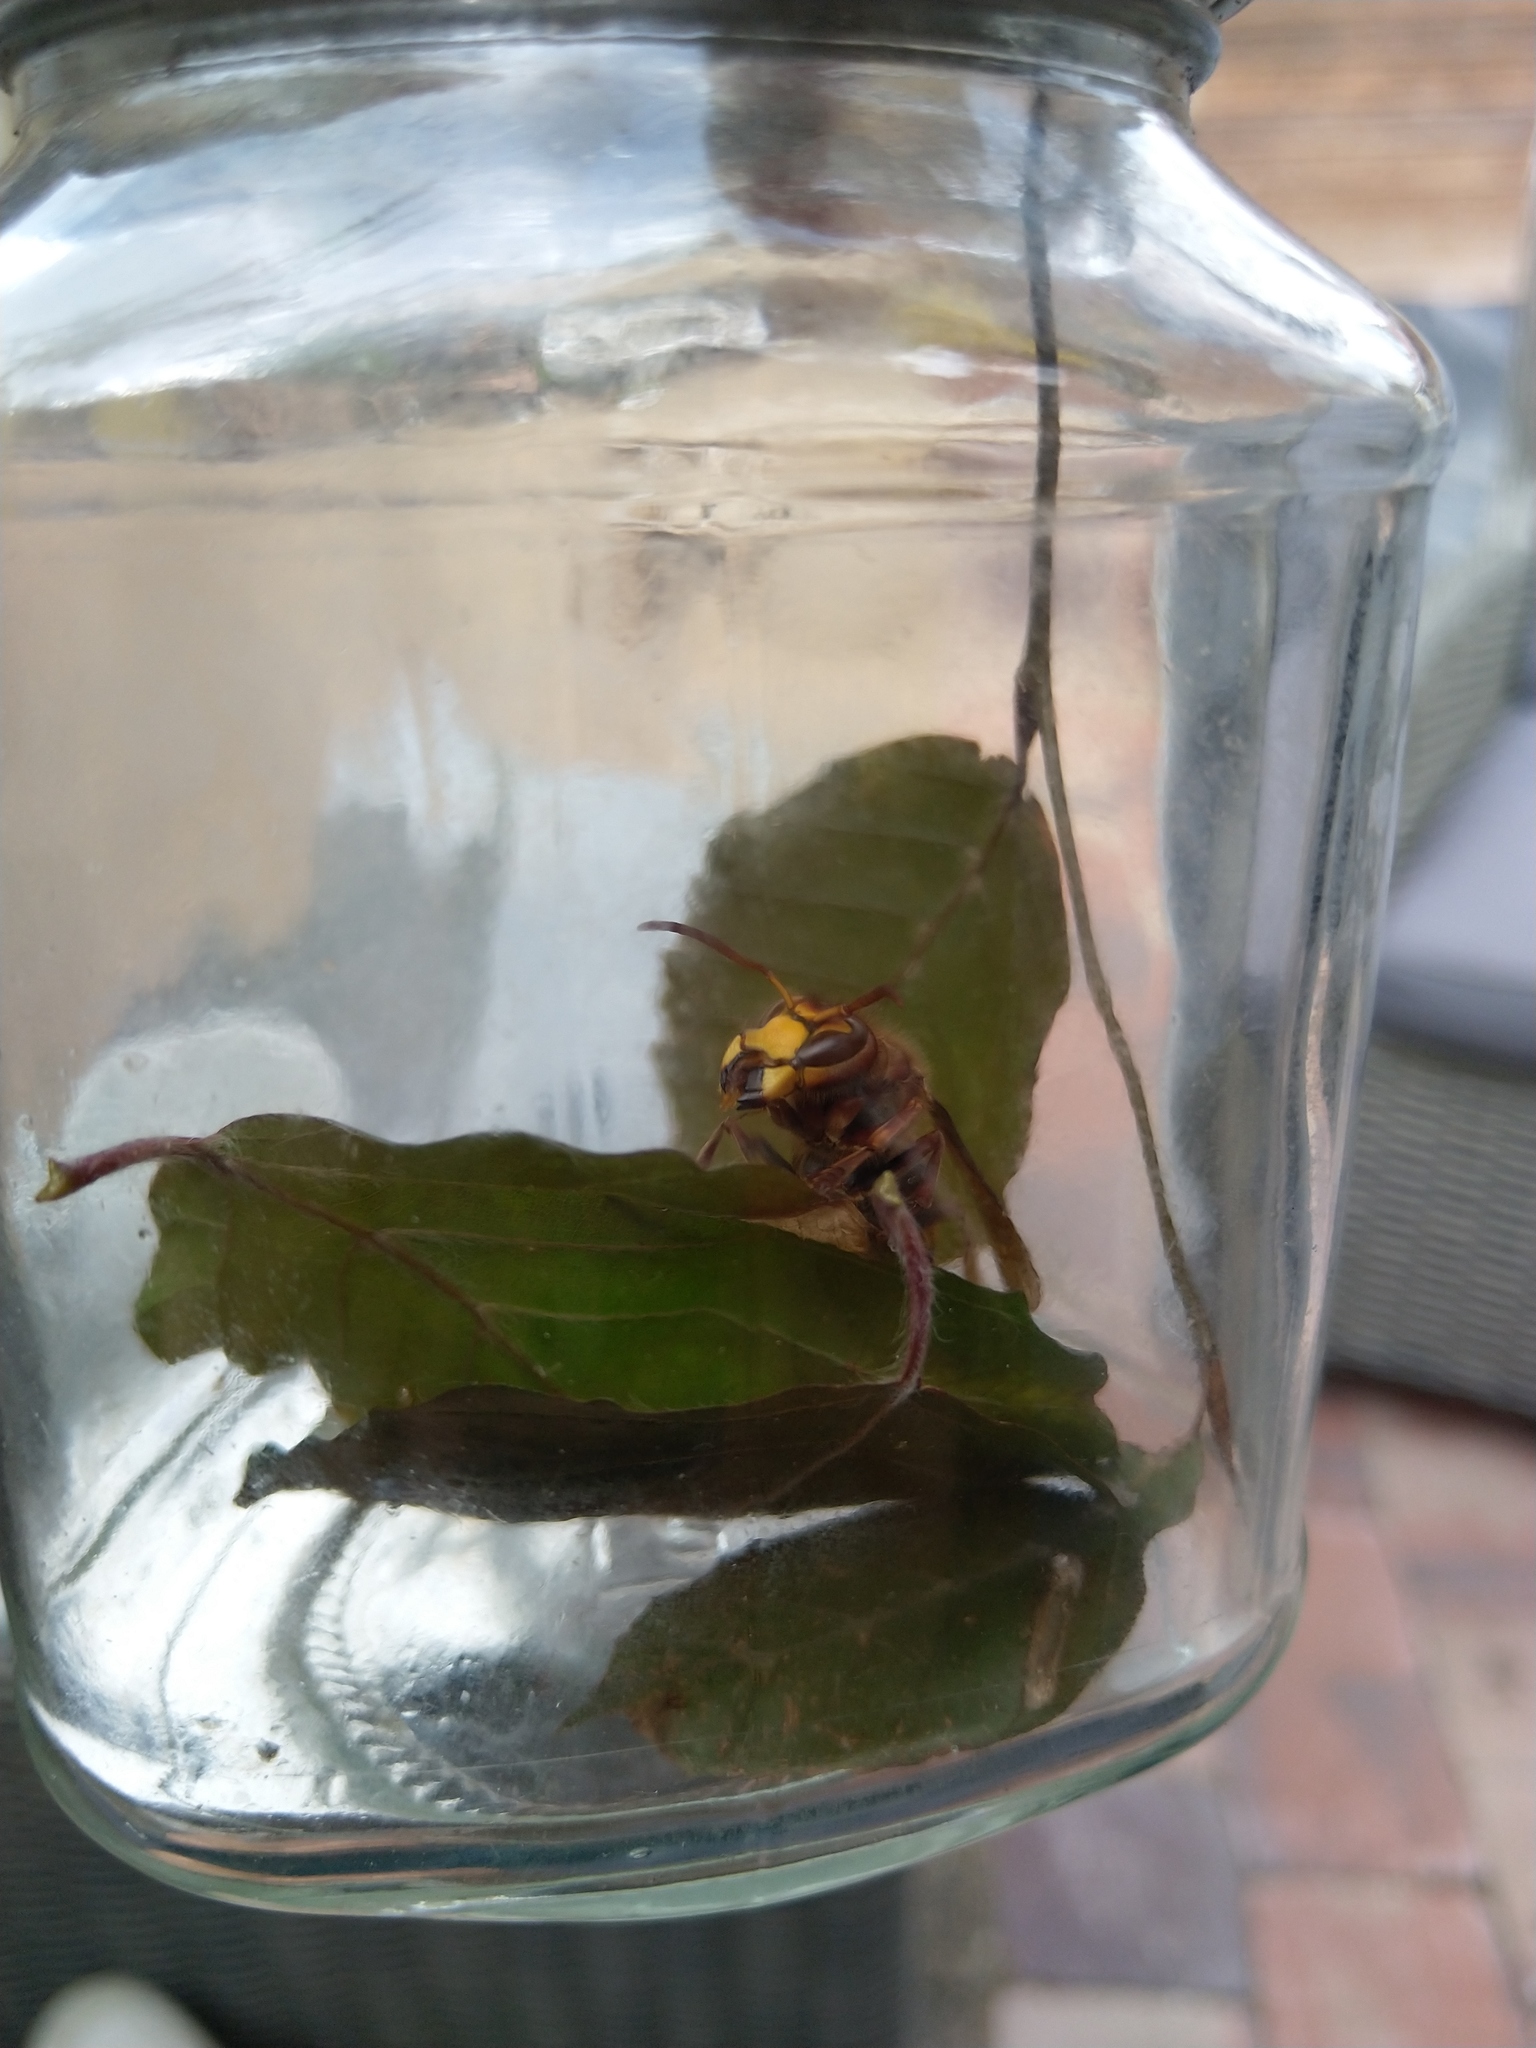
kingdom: Animalia
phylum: Arthropoda
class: Insecta
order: Hymenoptera
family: Vespidae
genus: Vespa
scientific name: Vespa crabro
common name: Hornet
